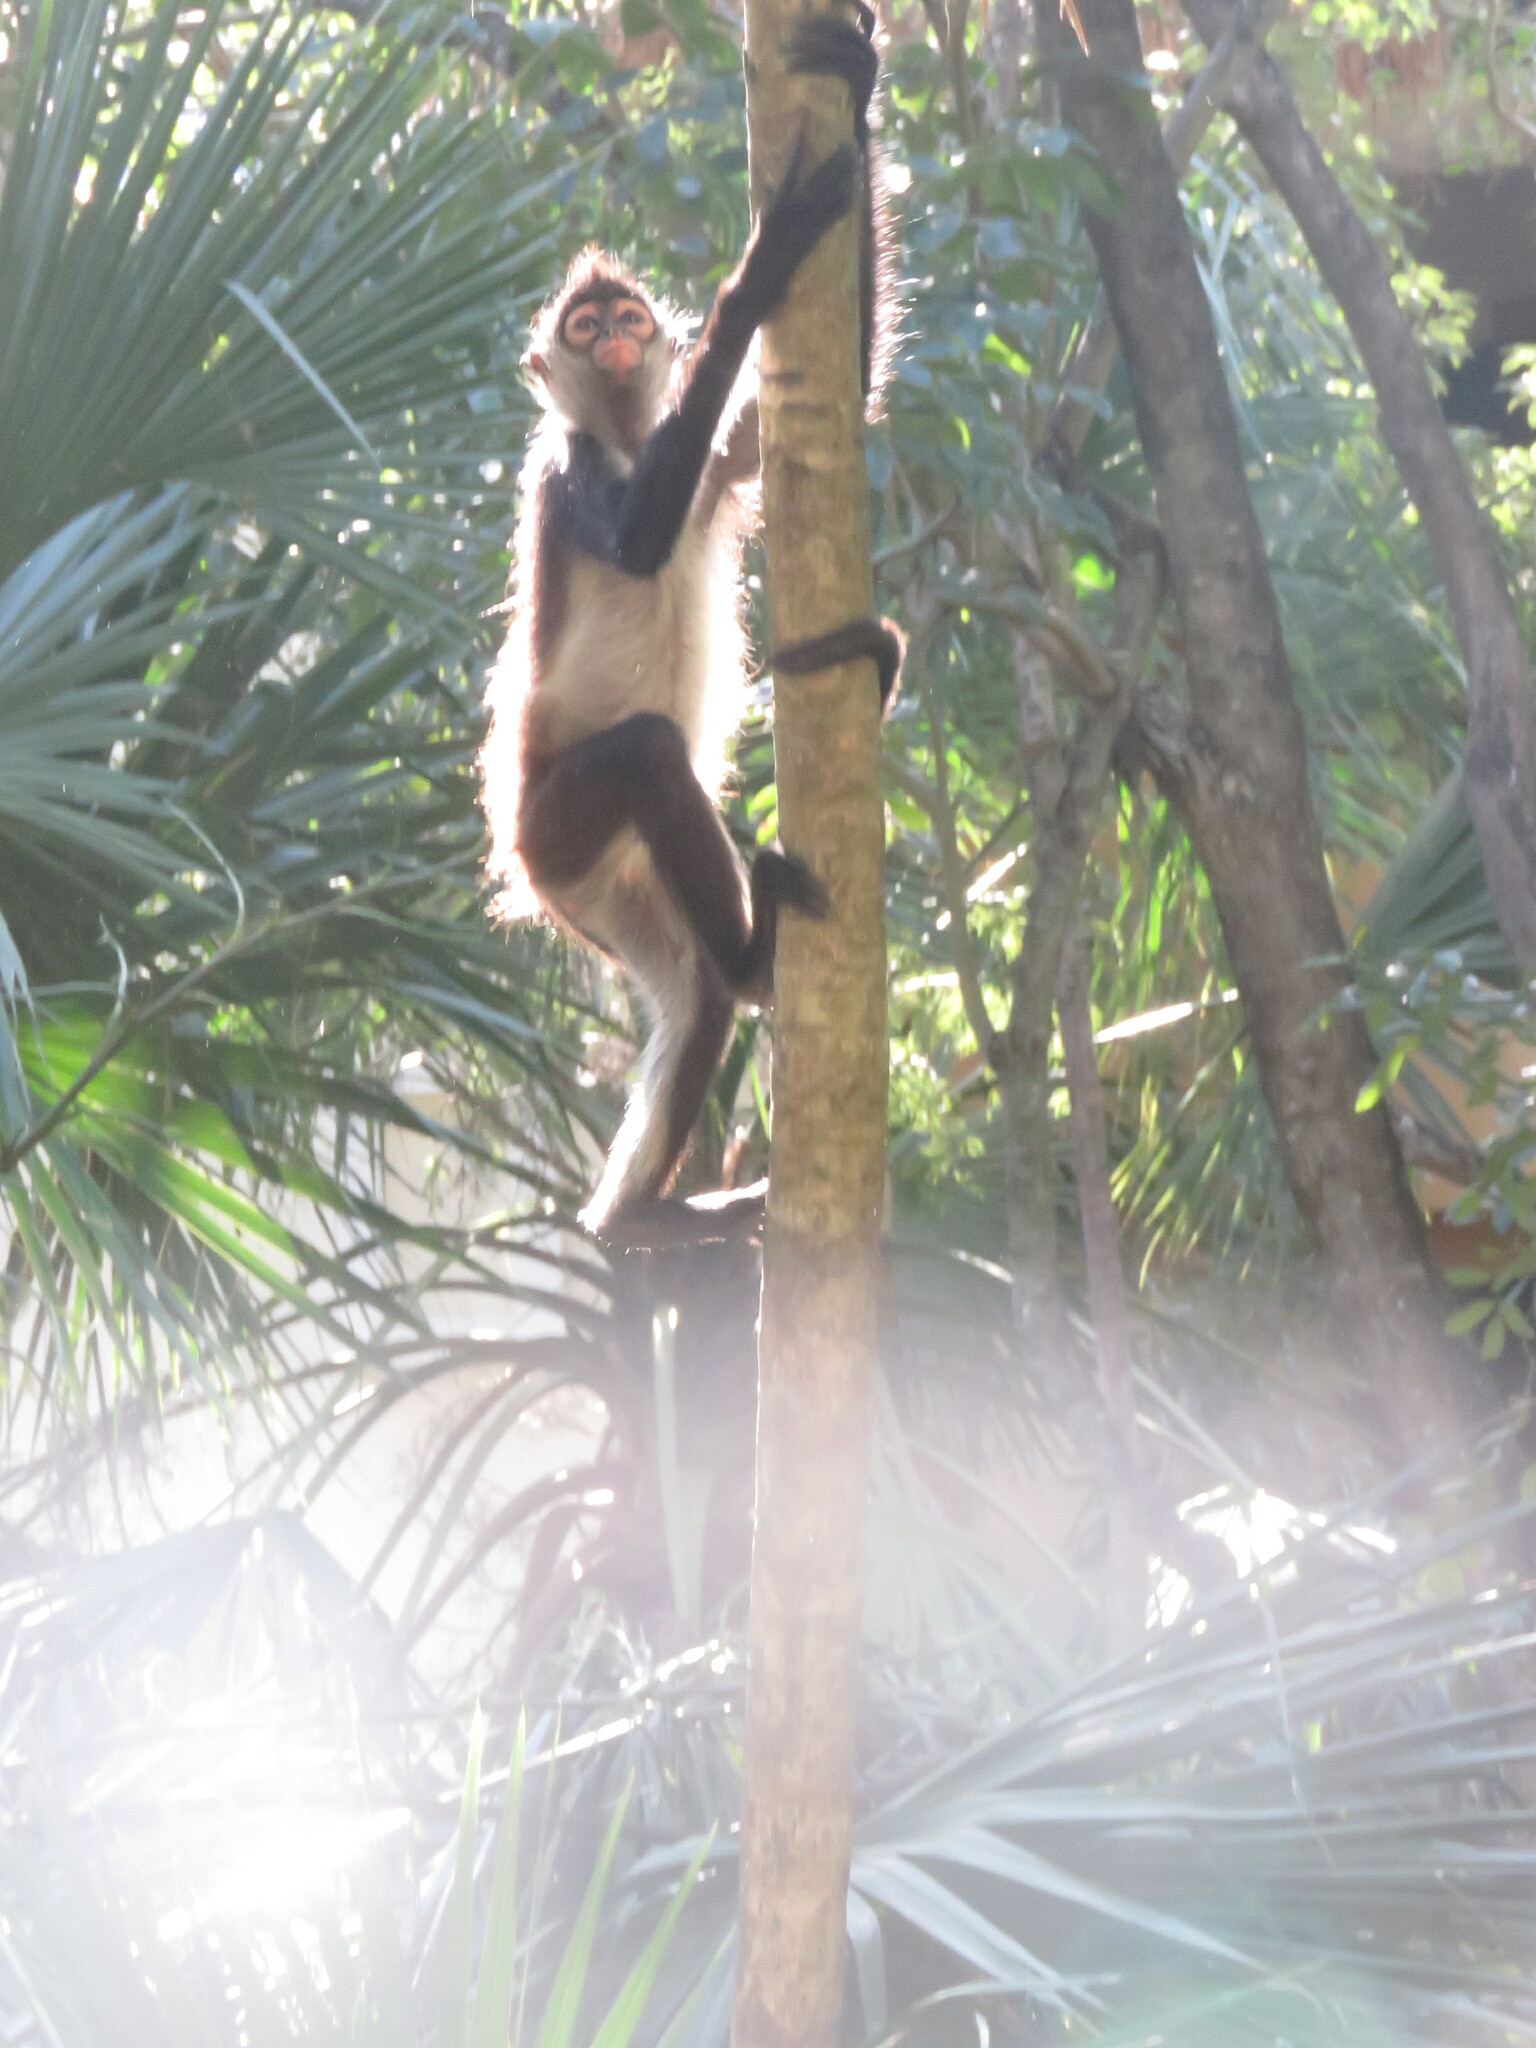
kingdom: Animalia
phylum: Chordata
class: Mammalia
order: Primates
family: Atelidae
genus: Ateles
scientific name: Ateles geoffroyi
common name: Black-handed spider monkey
